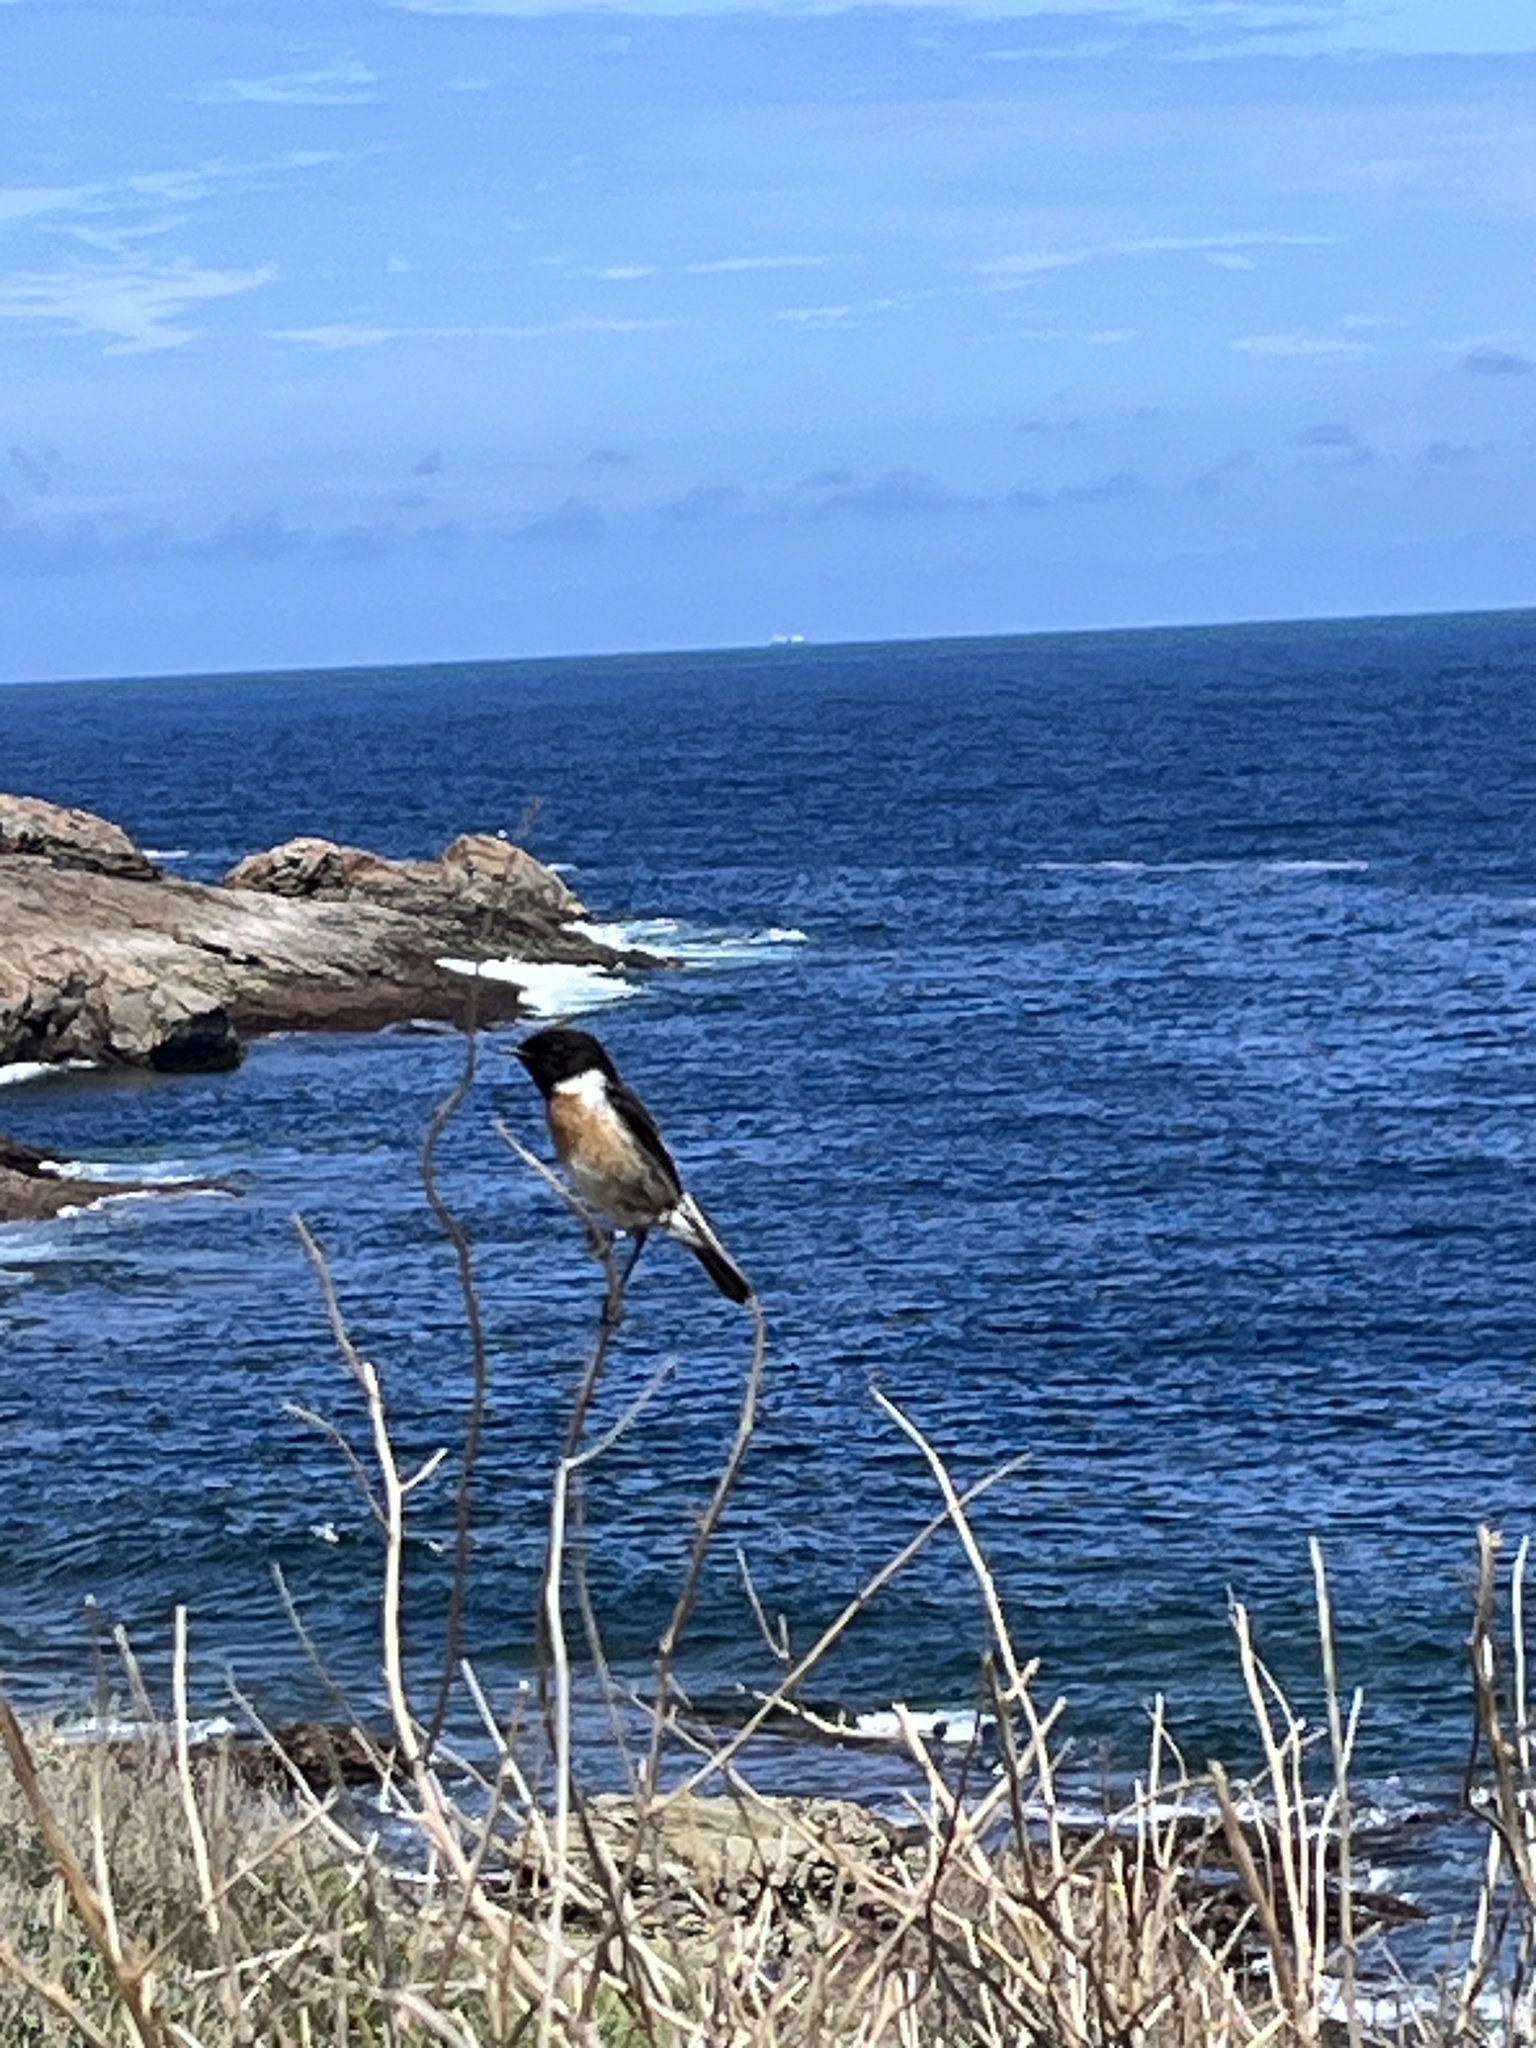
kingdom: Animalia
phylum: Chordata
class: Aves
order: Passeriformes
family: Muscicapidae
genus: Saxicola
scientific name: Saxicola rubicola
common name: European stonechat
